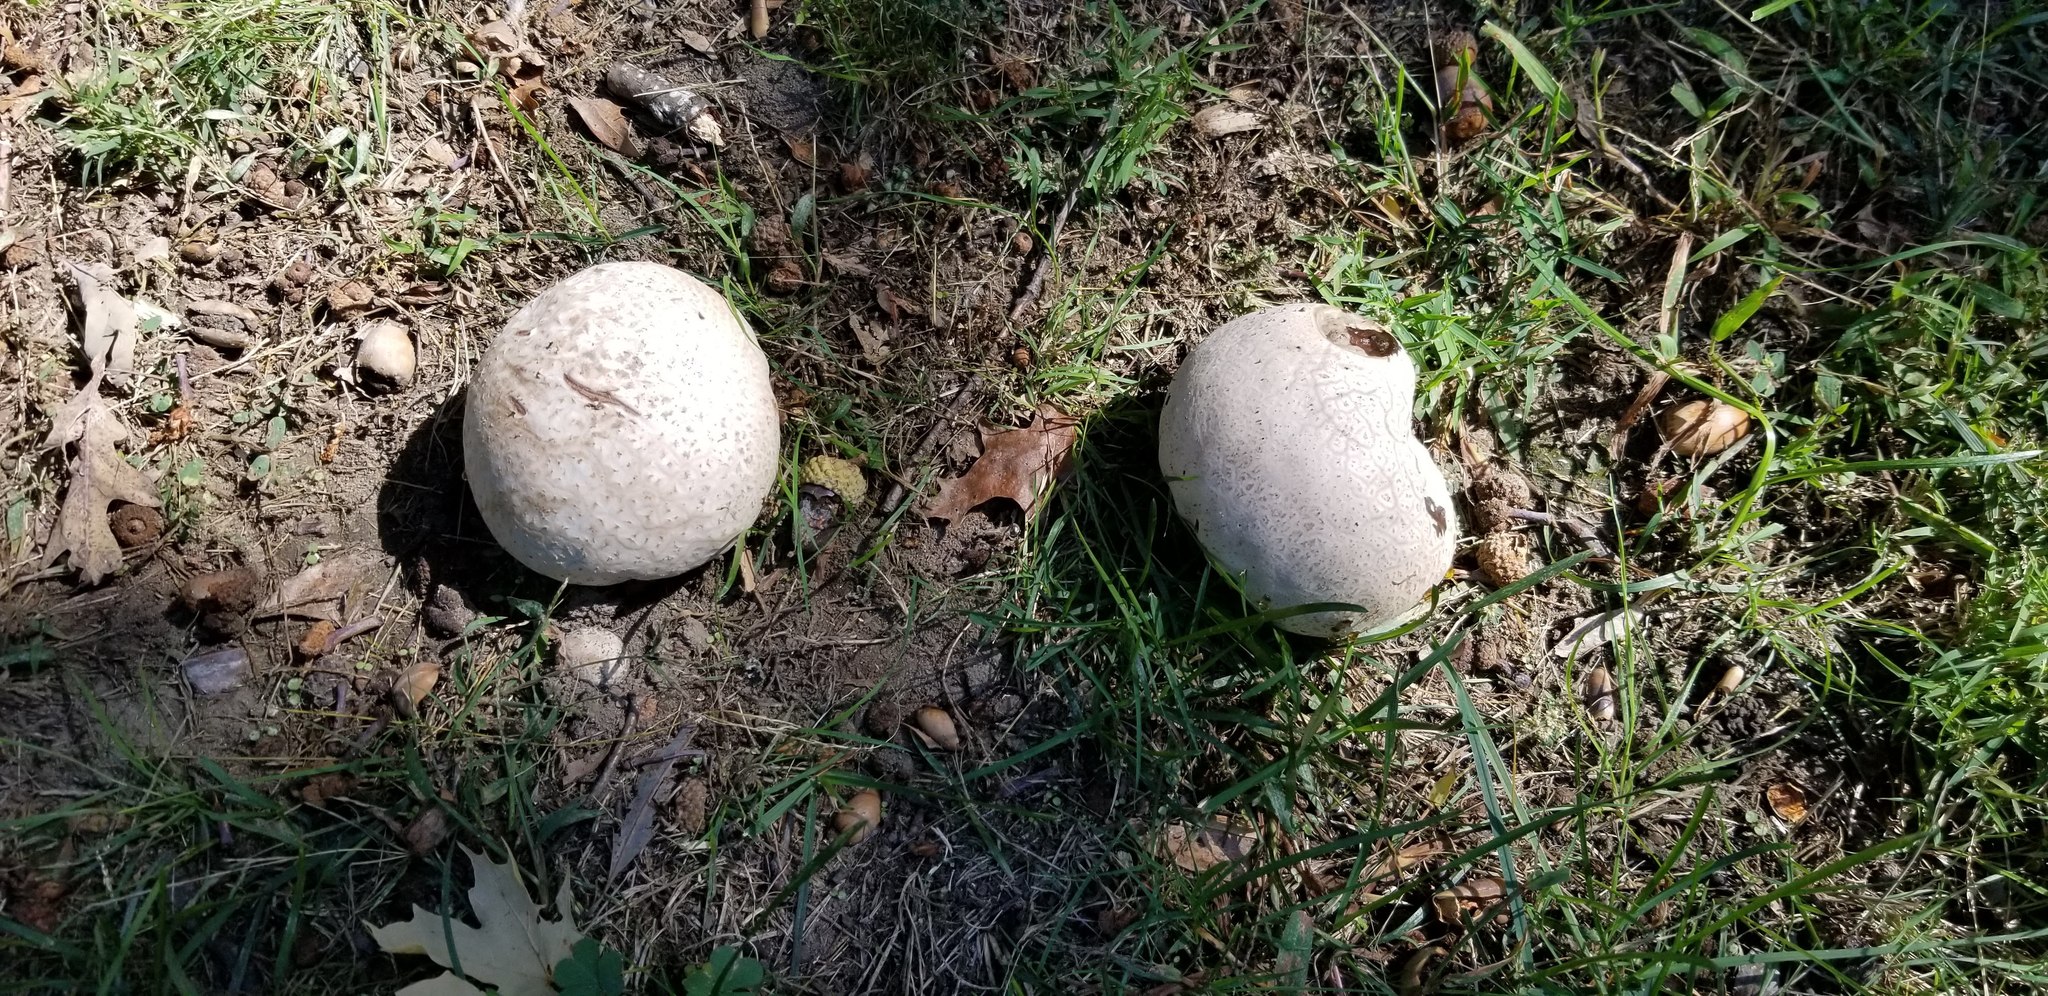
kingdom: Fungi
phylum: Basidiomycota
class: Agaricomycetes
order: Agaricales
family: Lycoperdaceae
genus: Calvatia
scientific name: Calvatia cyathiformis
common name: Purple-spored puffball
